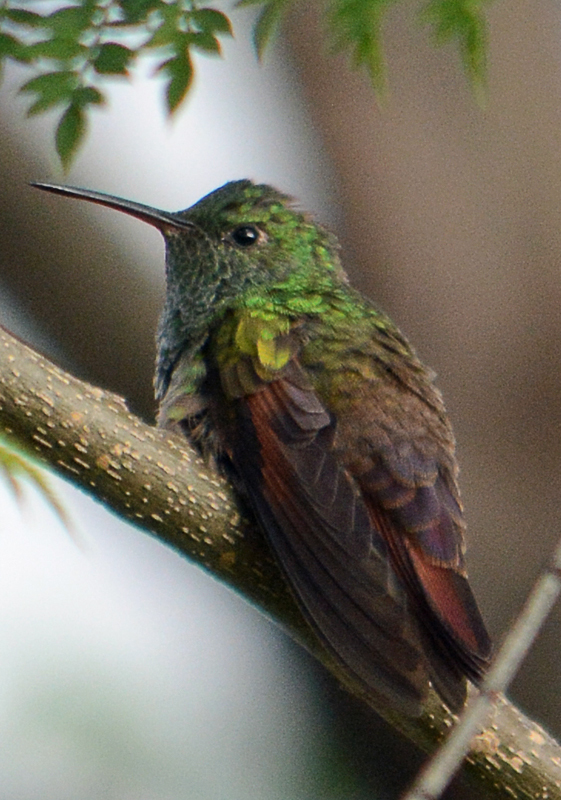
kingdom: Animalia
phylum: Chordata
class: Aves
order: Apodiformes
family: Trochilidae
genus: Saucerottia
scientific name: Saucerottia beryllina
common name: Berylline hummingbird
